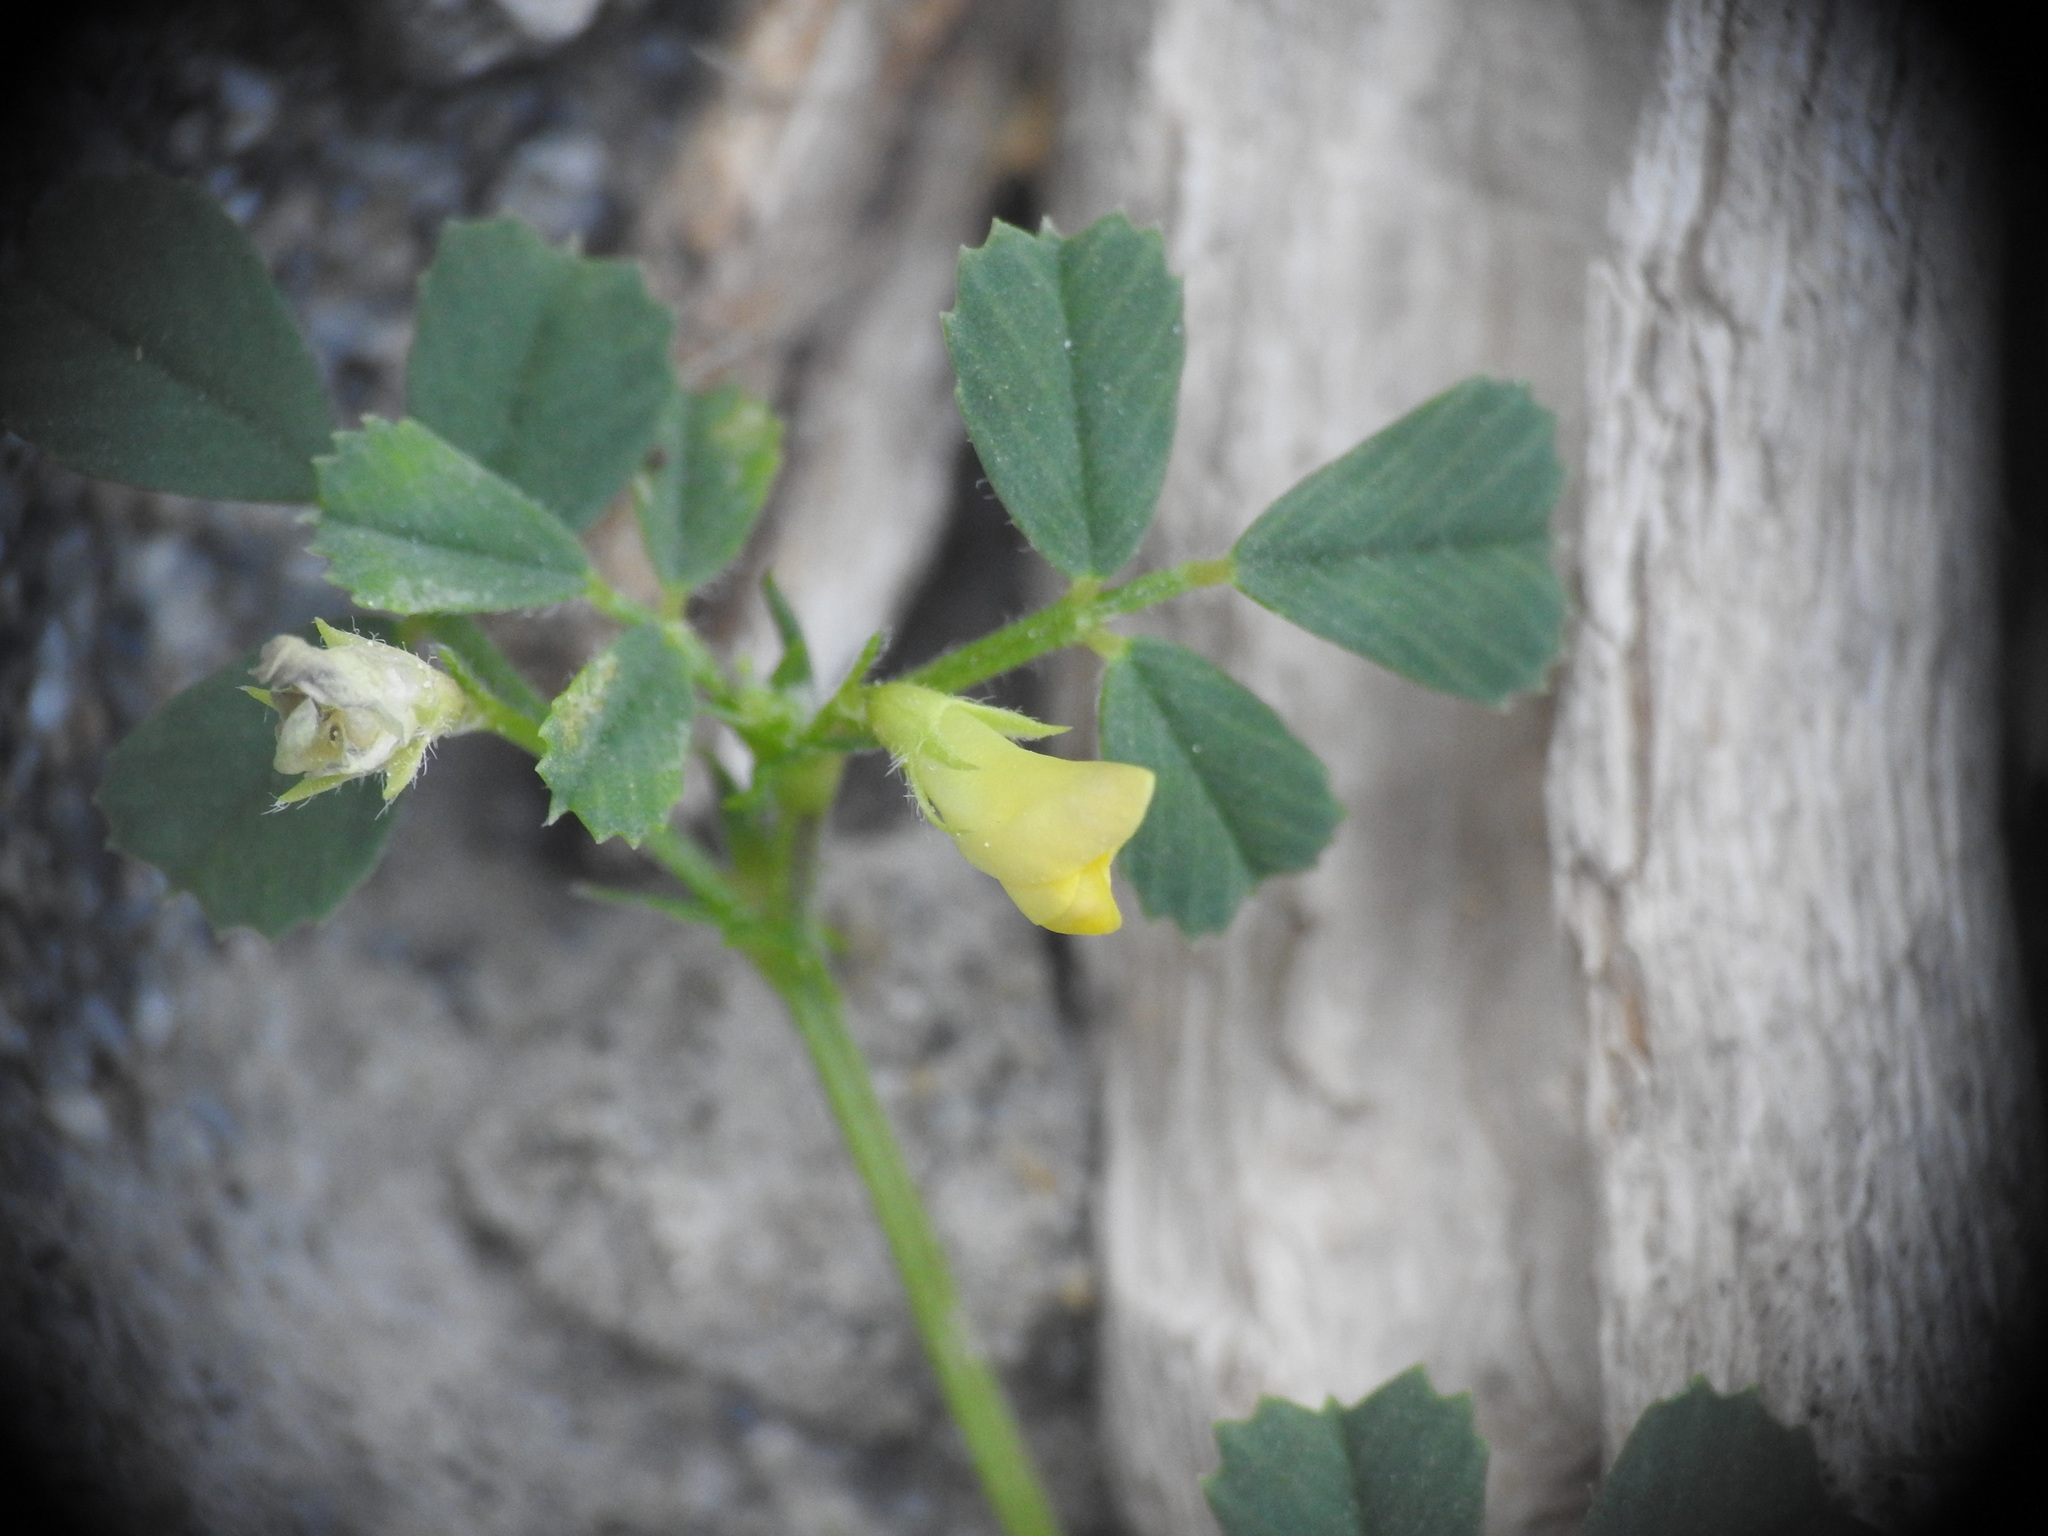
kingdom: Plantae
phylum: Tracheophyta
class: Magnoliopsida
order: Fabales
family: Fabaceae
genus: Medicago
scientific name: Medicago littoralis
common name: Shore medick
